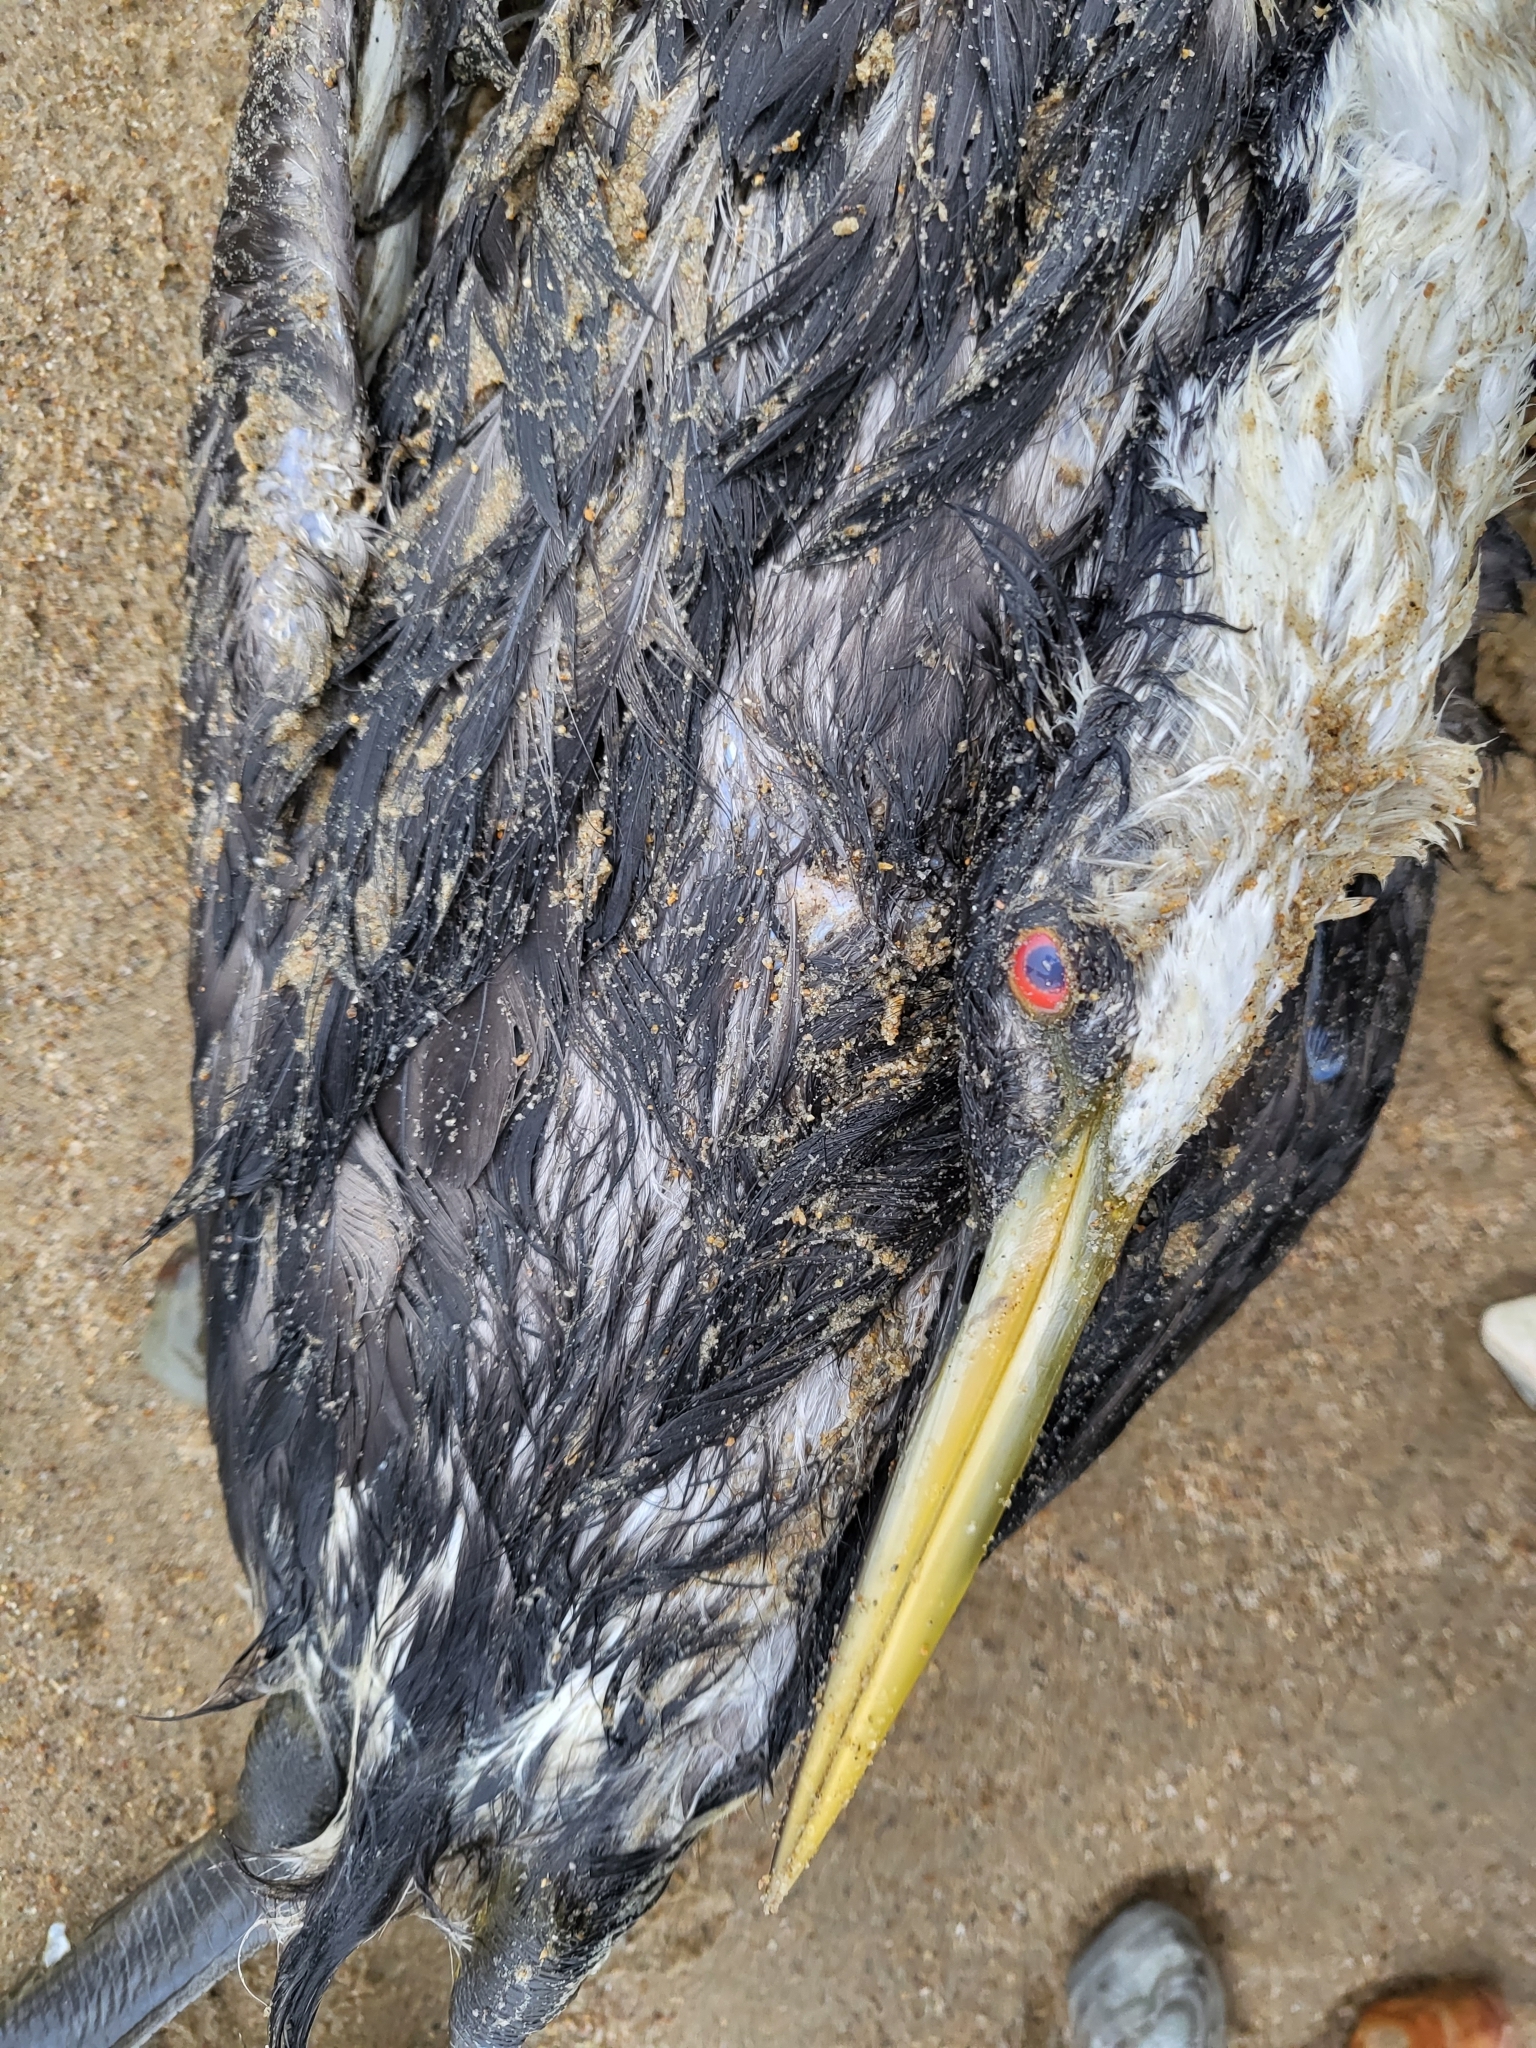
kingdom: Animalia
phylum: Chordata
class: Aves
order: Podicipediformes
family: Podicipedidae
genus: Aechmophorus
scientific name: Aechmophorus occidentalis
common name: Western grebe
